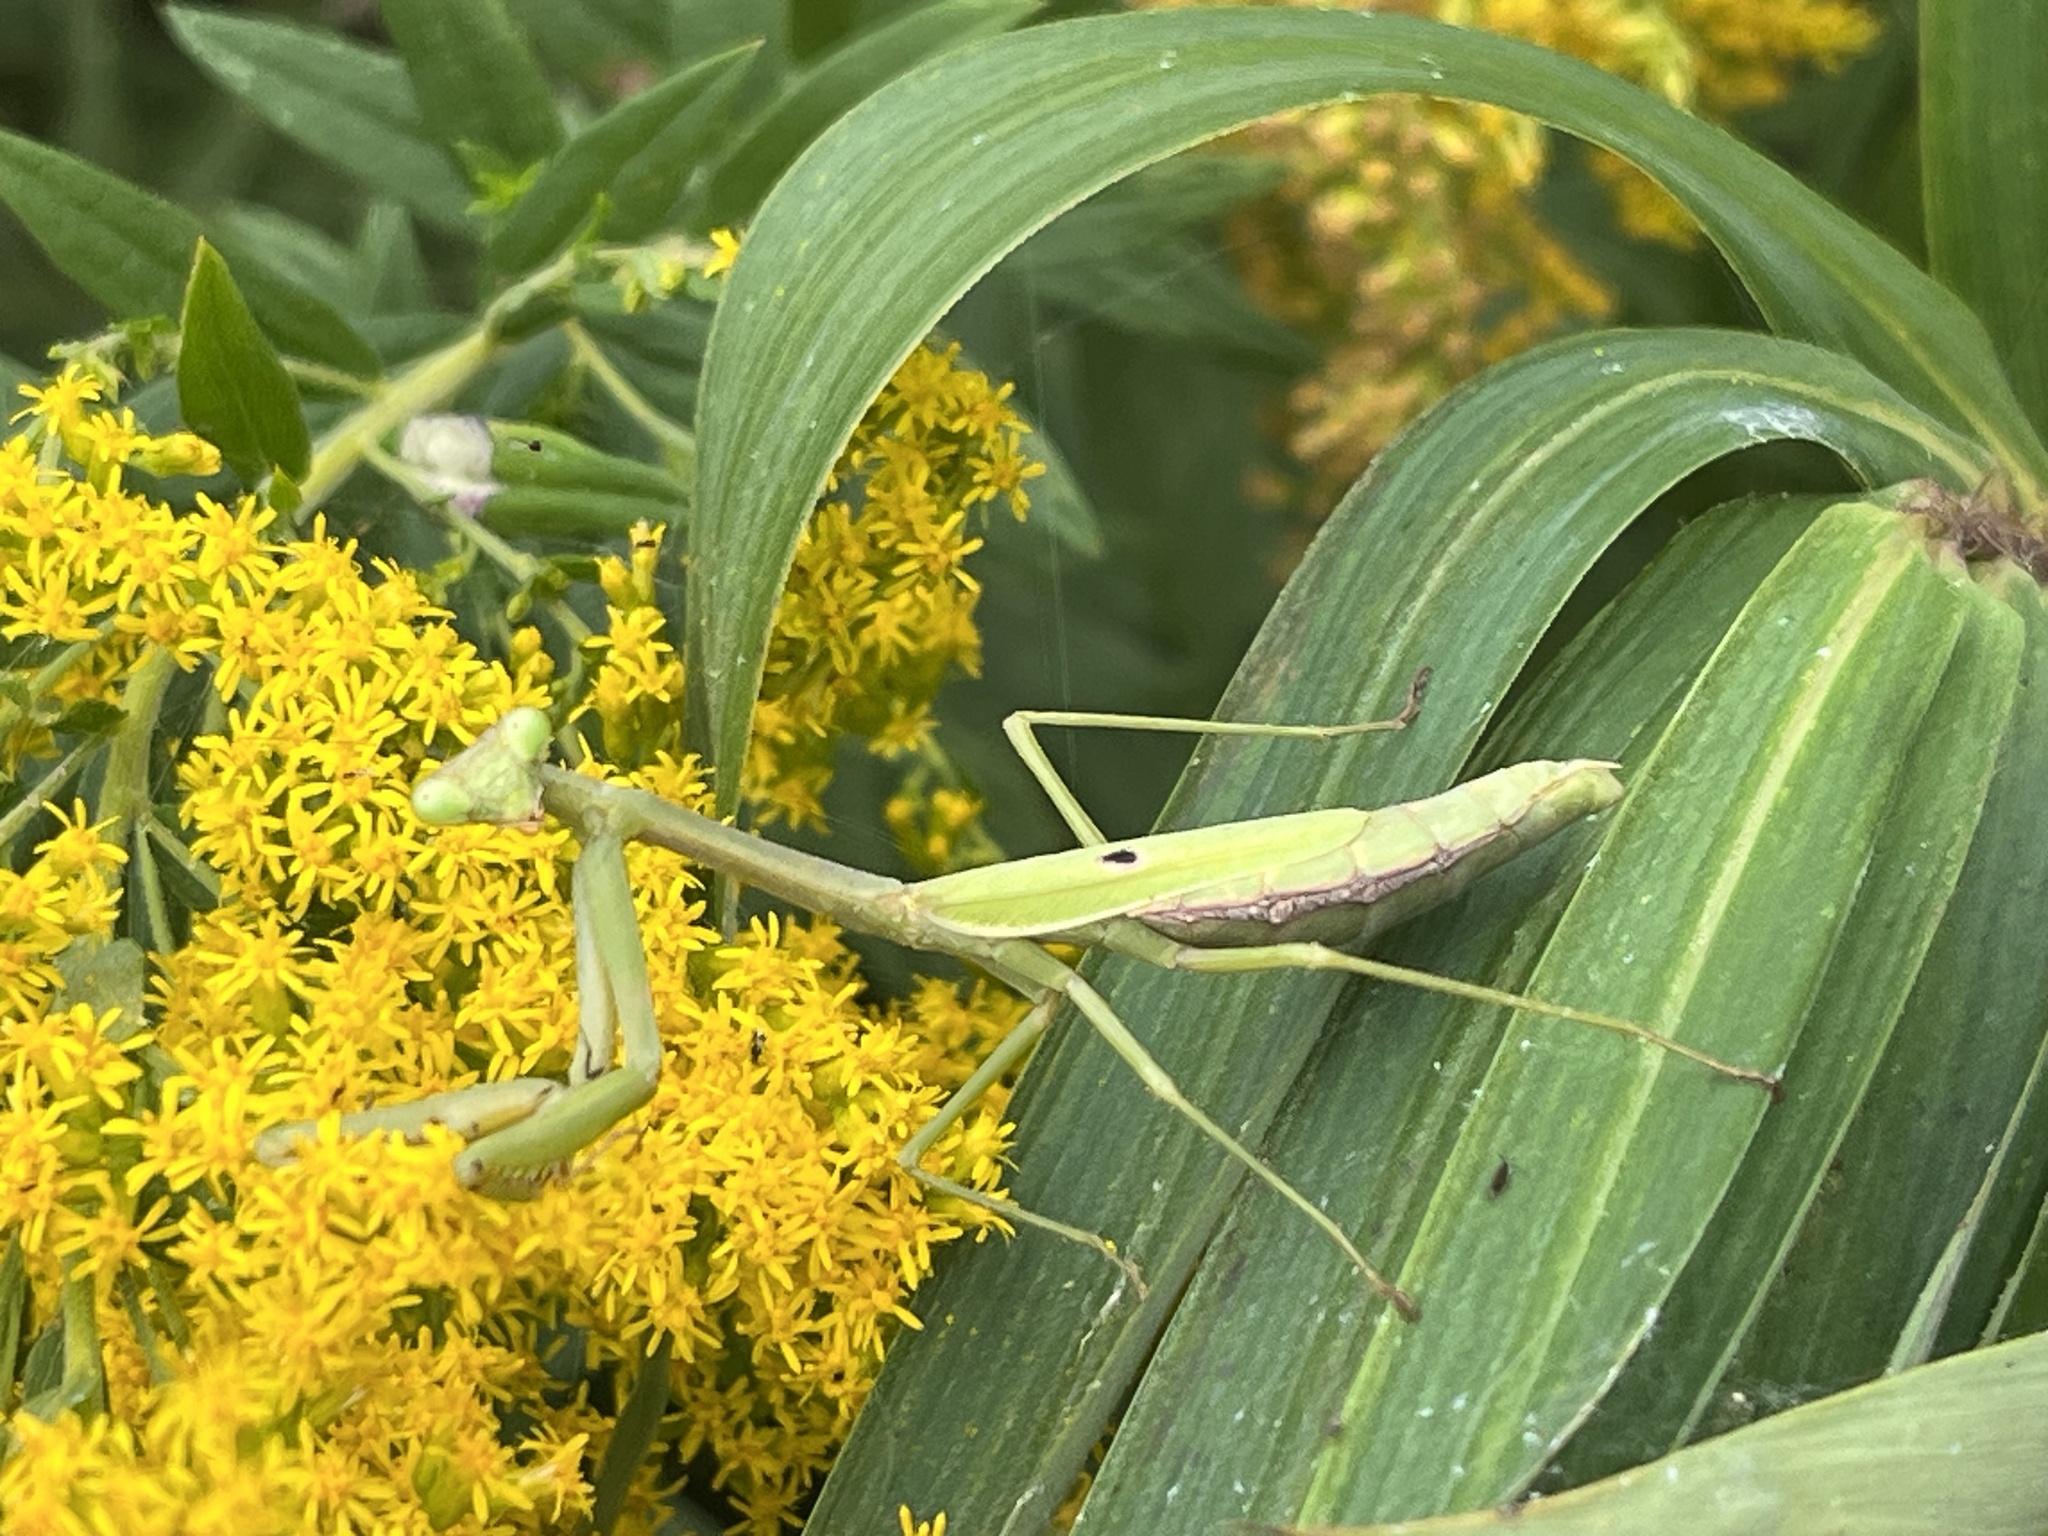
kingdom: Animalia
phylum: Arthropoda
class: Insecta
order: Mantodea
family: Mantidae
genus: Stagmomantis
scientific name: Stagmomantis carolina
